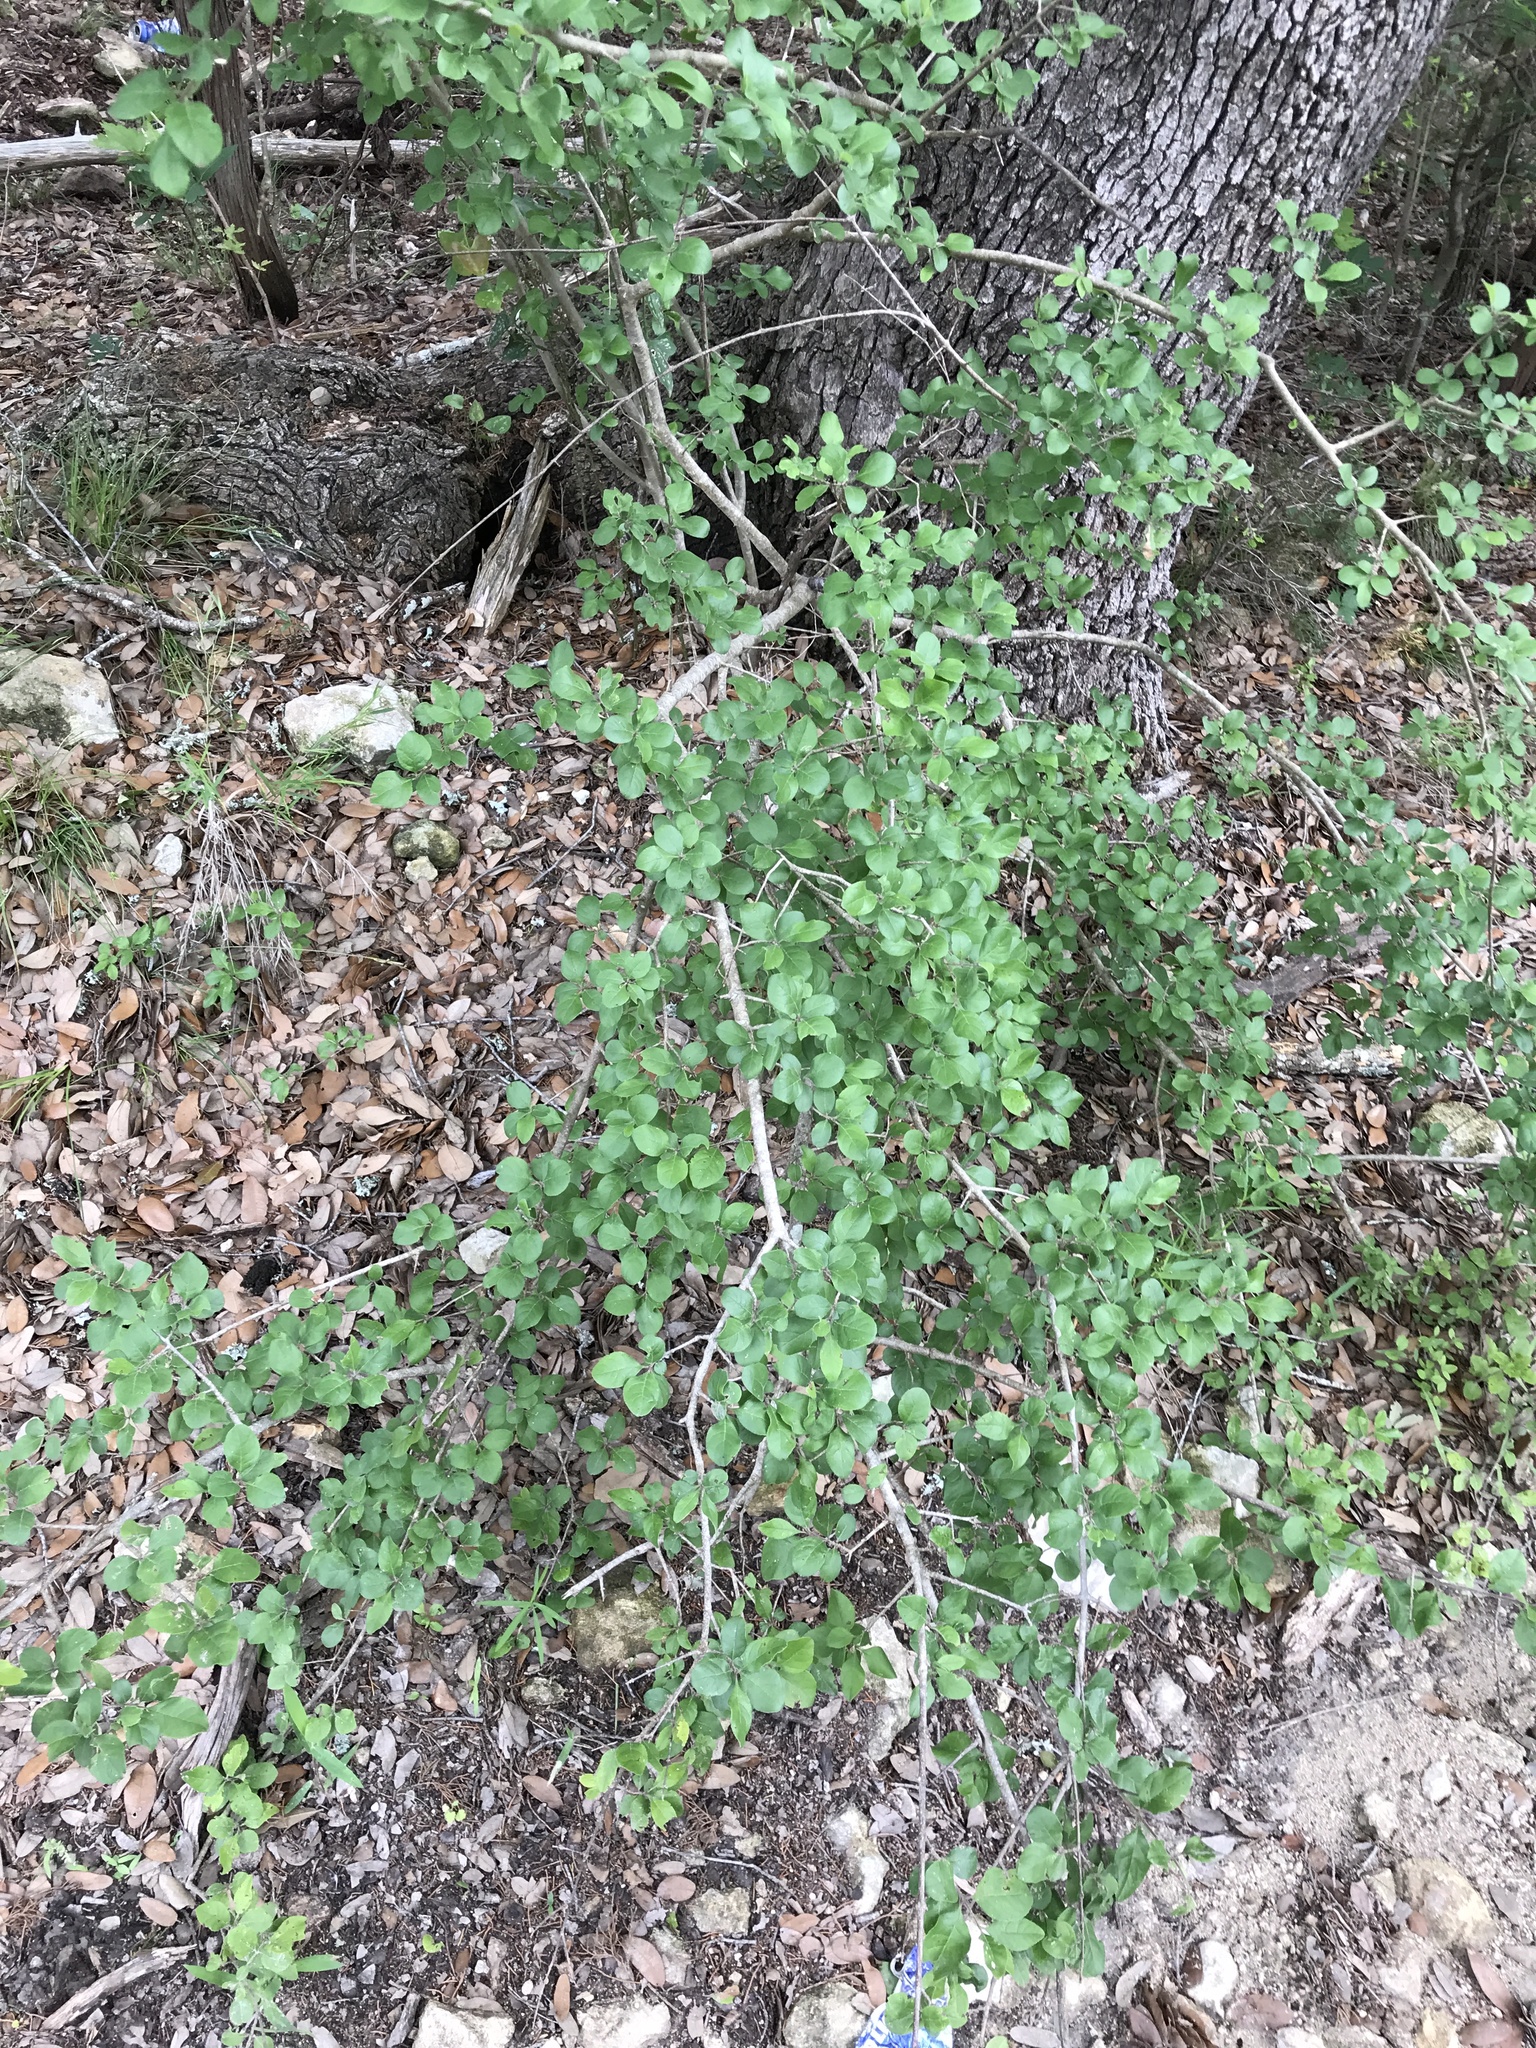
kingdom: Plantae
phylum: Tracheophyta
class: Magnoliopsida
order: Lamiales
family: Oleaceae
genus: Forestiera
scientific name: Forestiera pubescens
